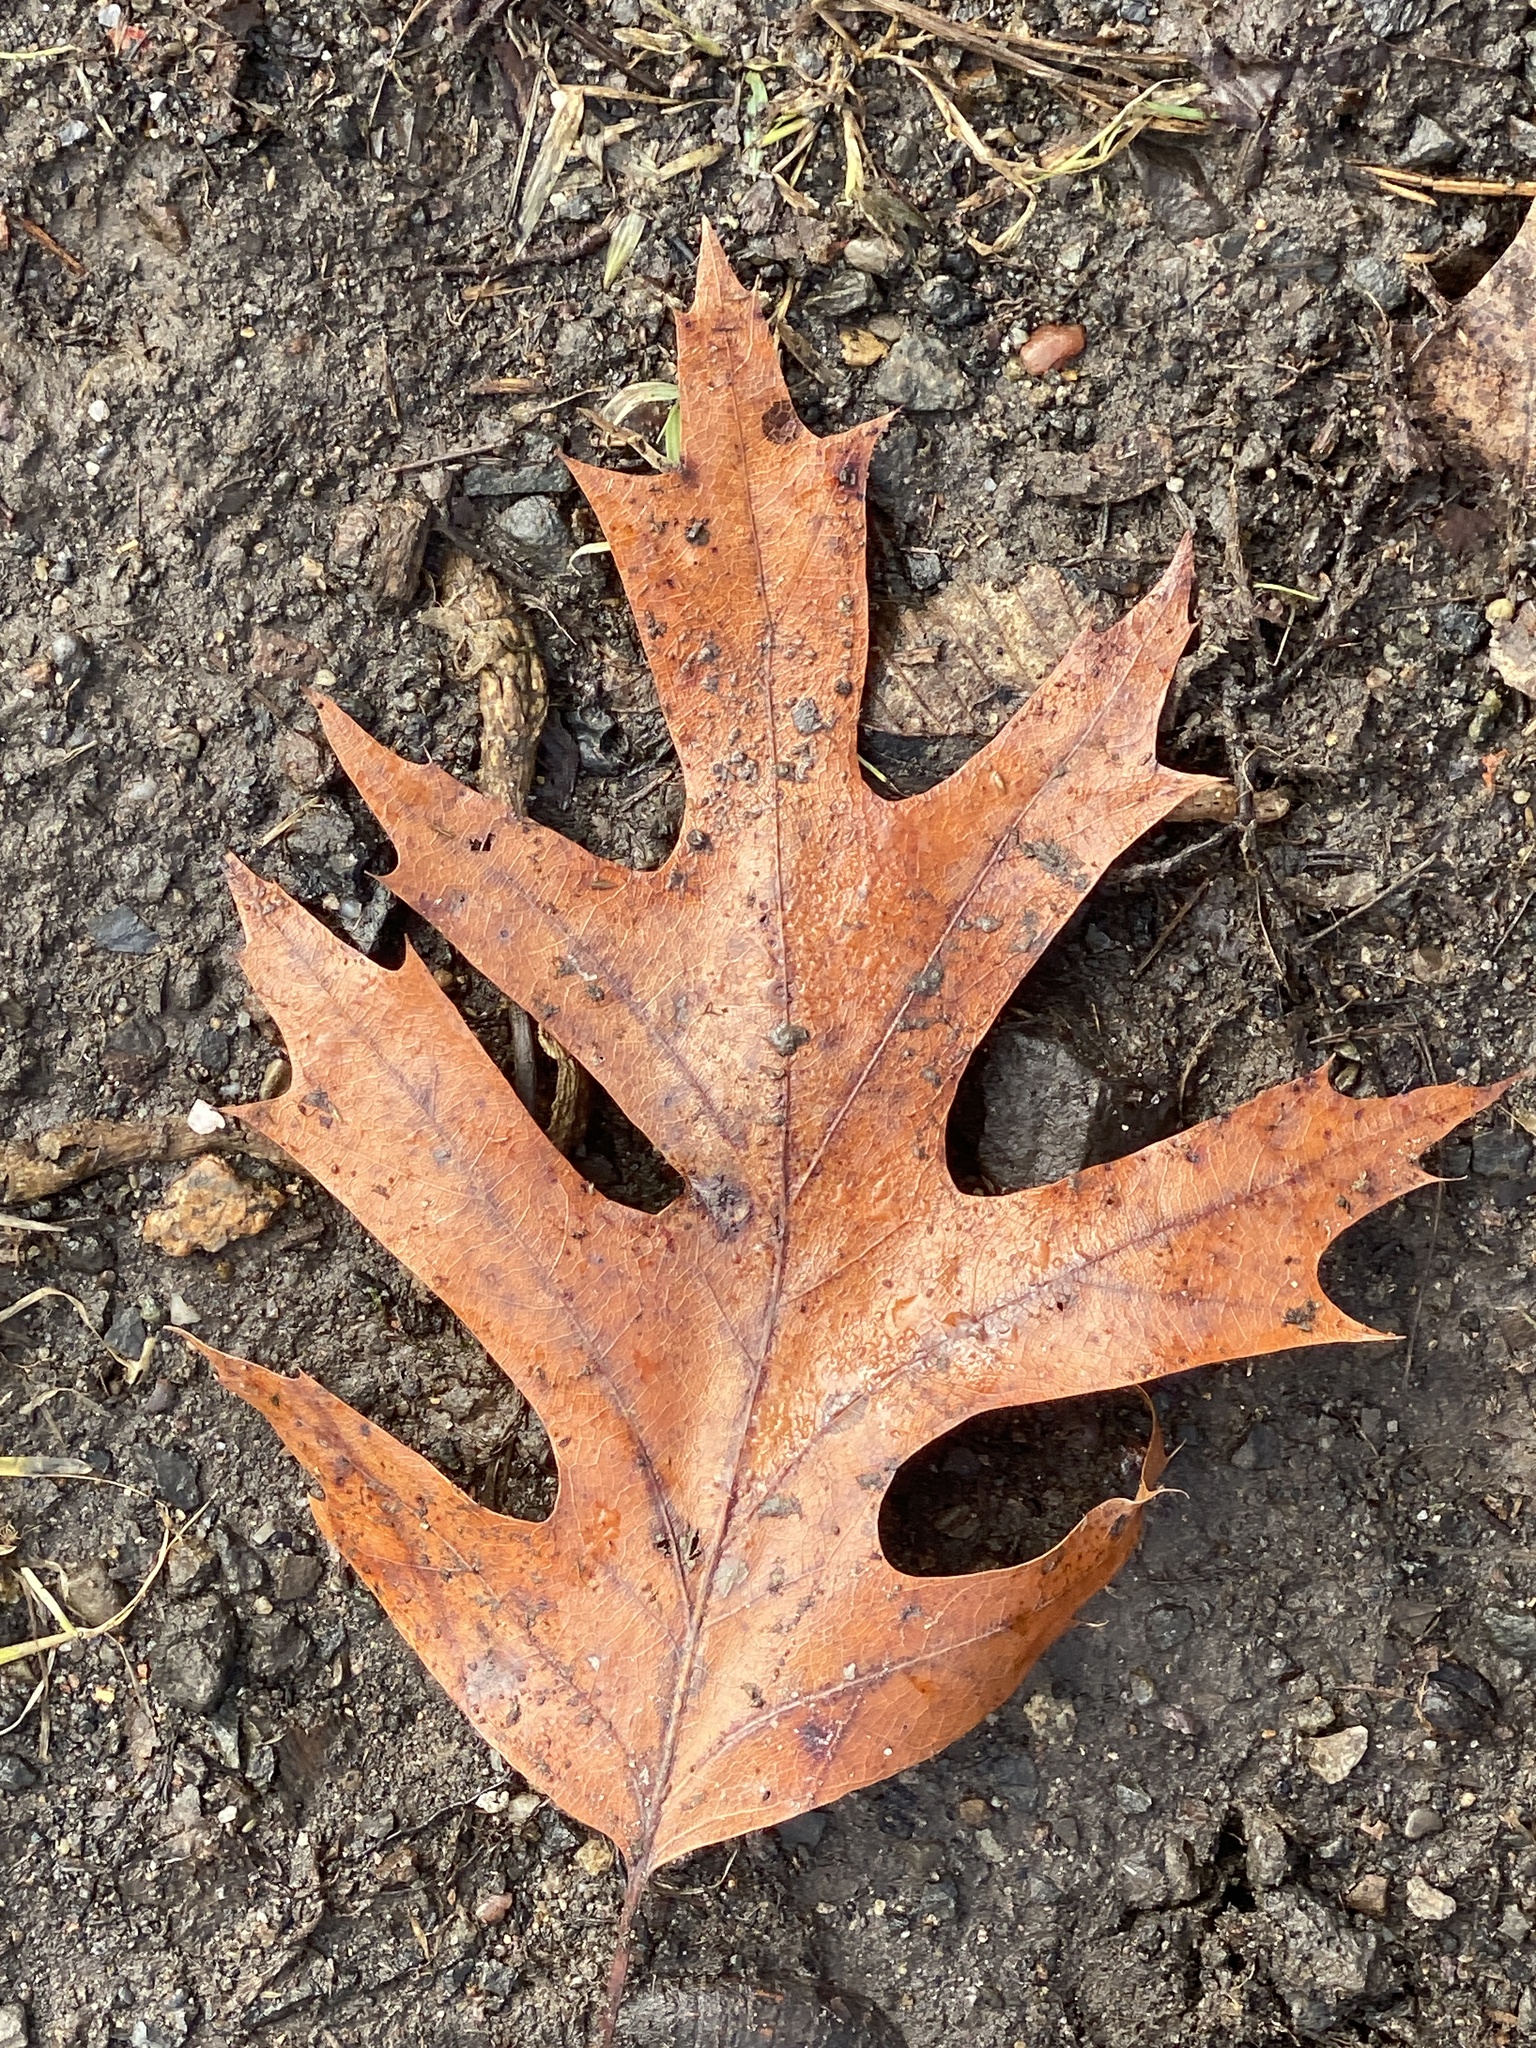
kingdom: Plantae
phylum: Tracheophyta
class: Magnoliopsida
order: Fagales
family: Fagaceae
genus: Quercus
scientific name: Quercus rubra
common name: Red oak
